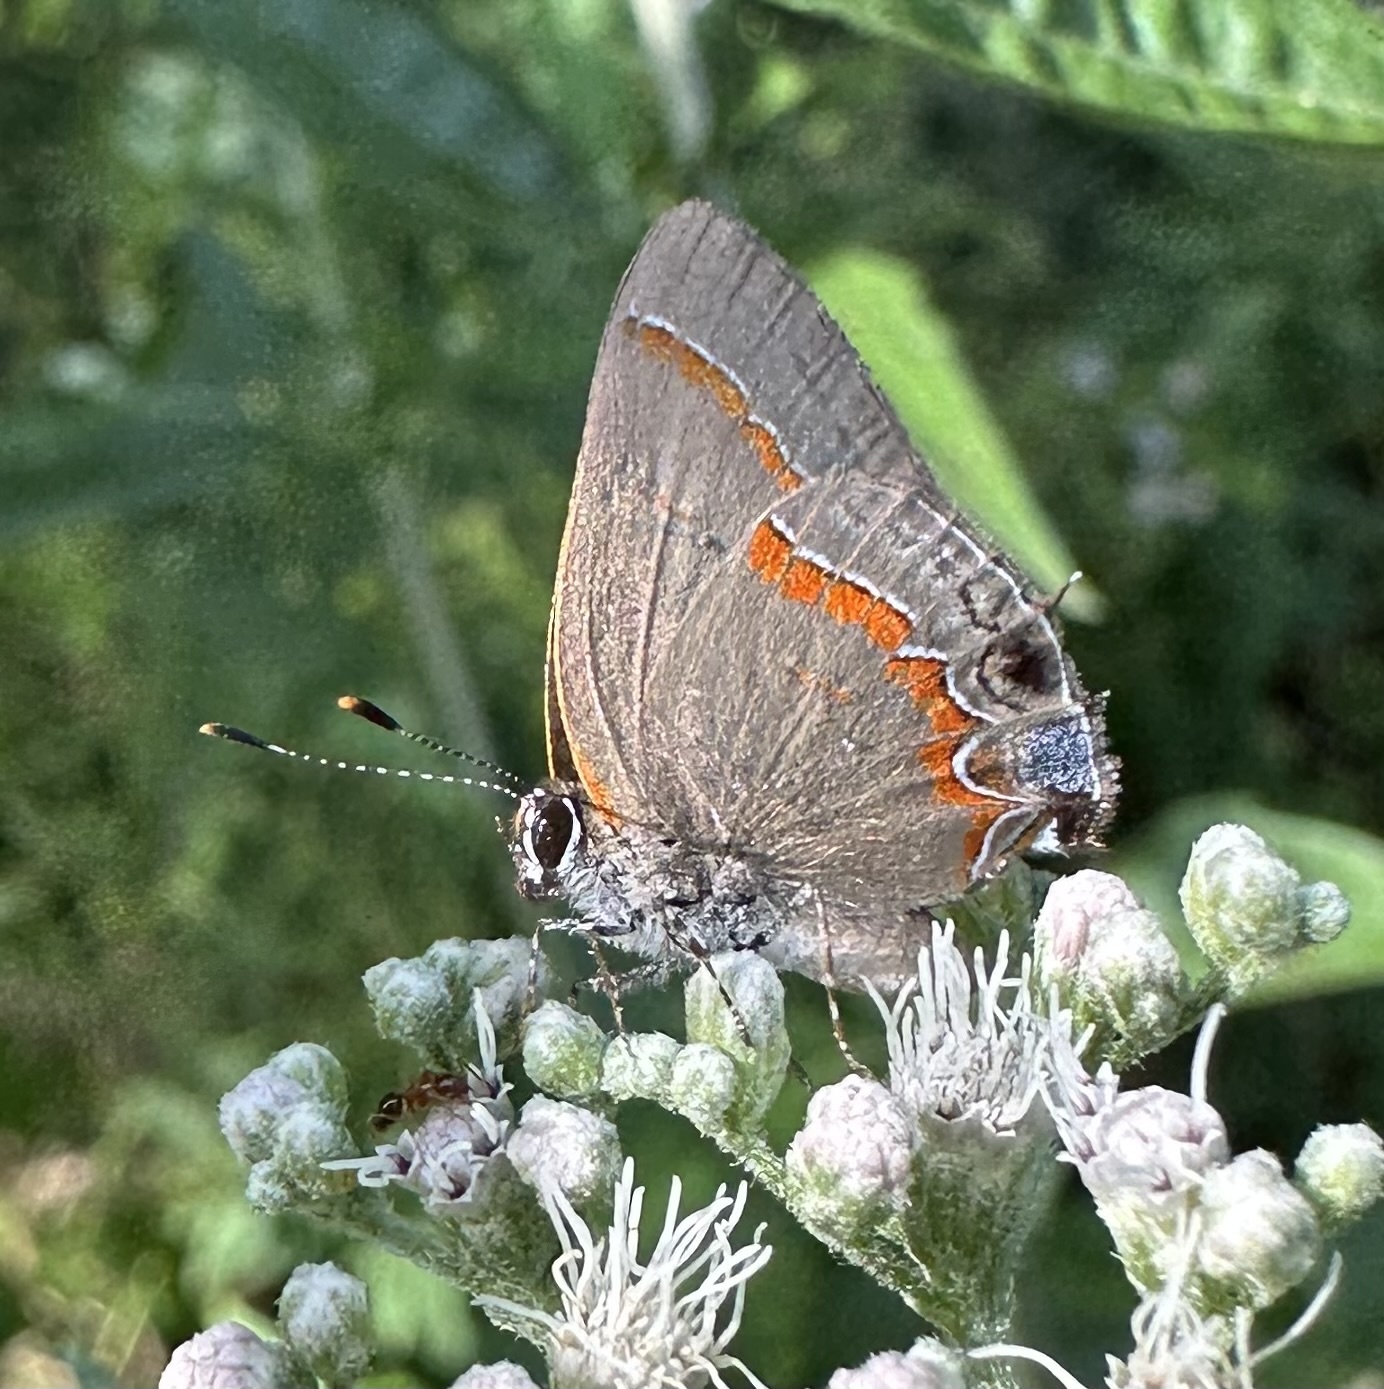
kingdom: Animalia
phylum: Arthropoda
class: Insecta
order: Lepidoptera
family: Lycaenidae
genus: Calycopis
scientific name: Calycopis cecrops
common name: Red-banded hairstreak
